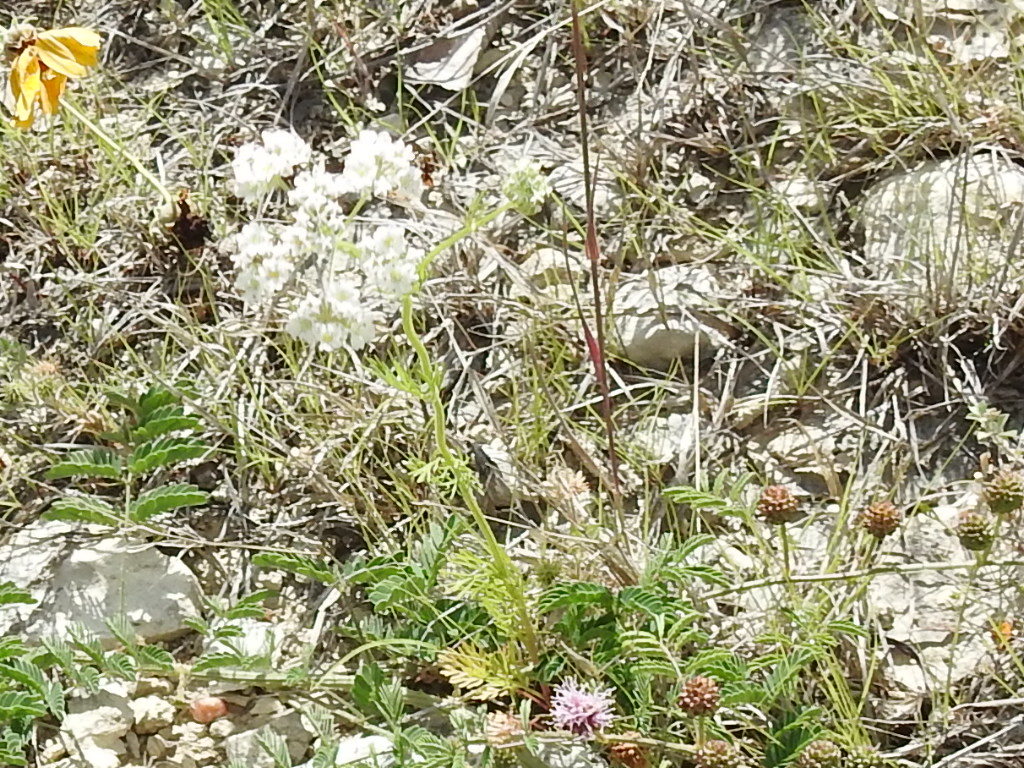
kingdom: Plantae
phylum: Tracheophyta
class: Magnoliopsida
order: Apiales
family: Apiaceae
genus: Atrema
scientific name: Atrema americanum
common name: Prairie-bishop
